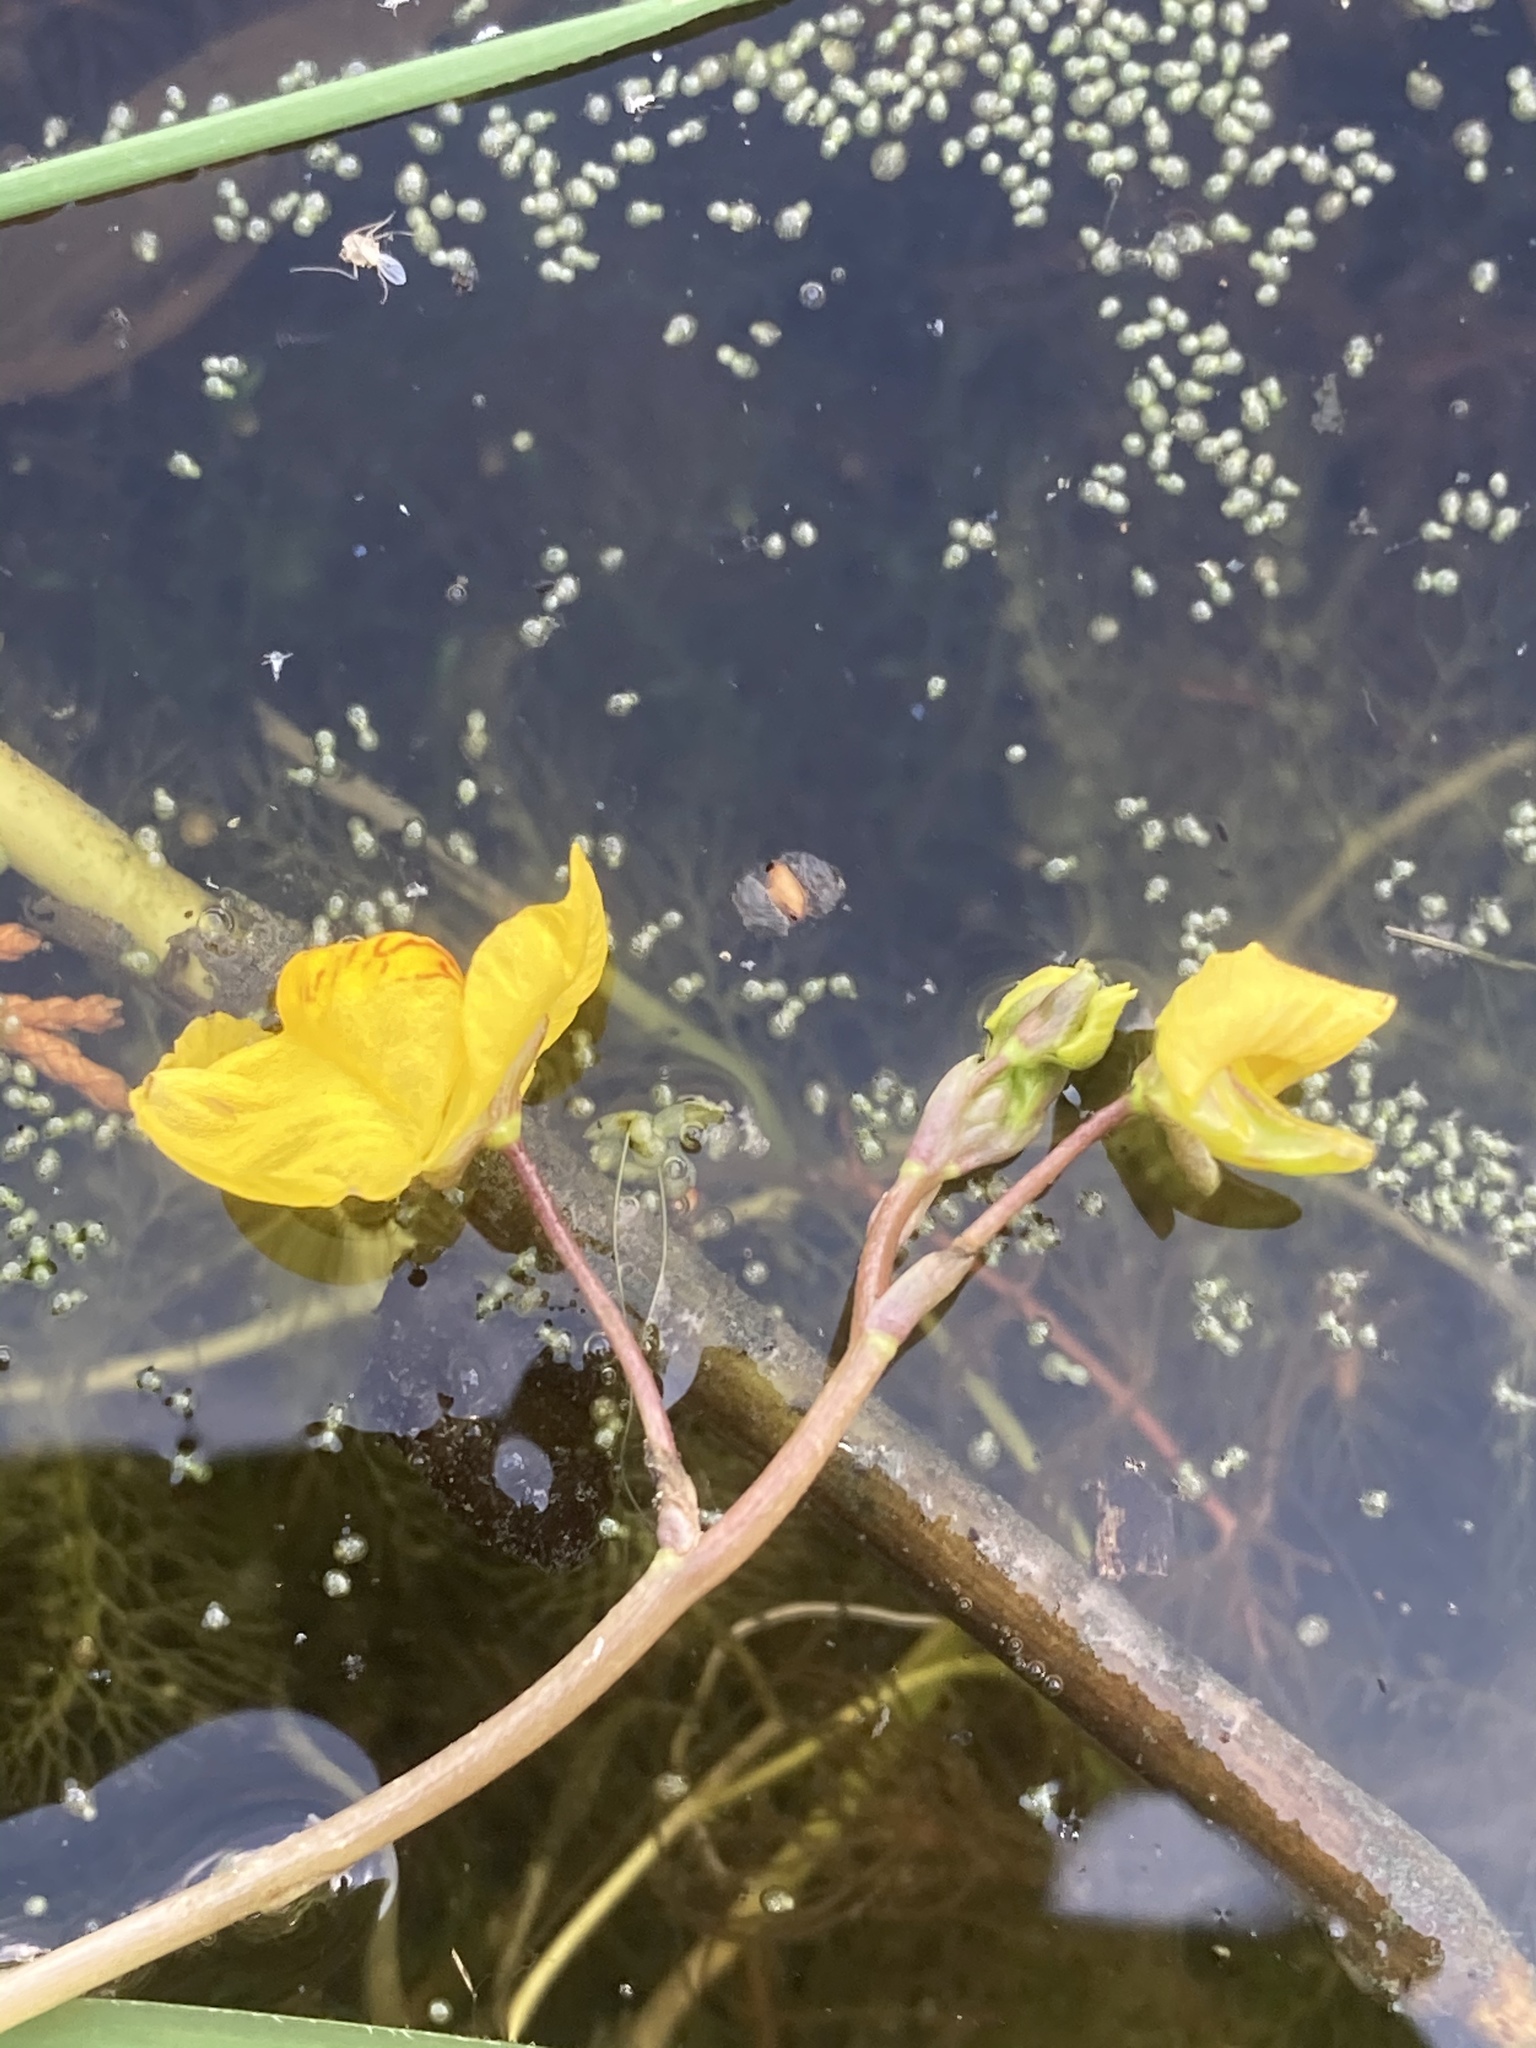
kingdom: Plantae
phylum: Tracheophyta
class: Magnoliopsida
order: Lamiales
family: Lentibulariaceae
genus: Utricularia
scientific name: Utricularia australis
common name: Bladderwort
